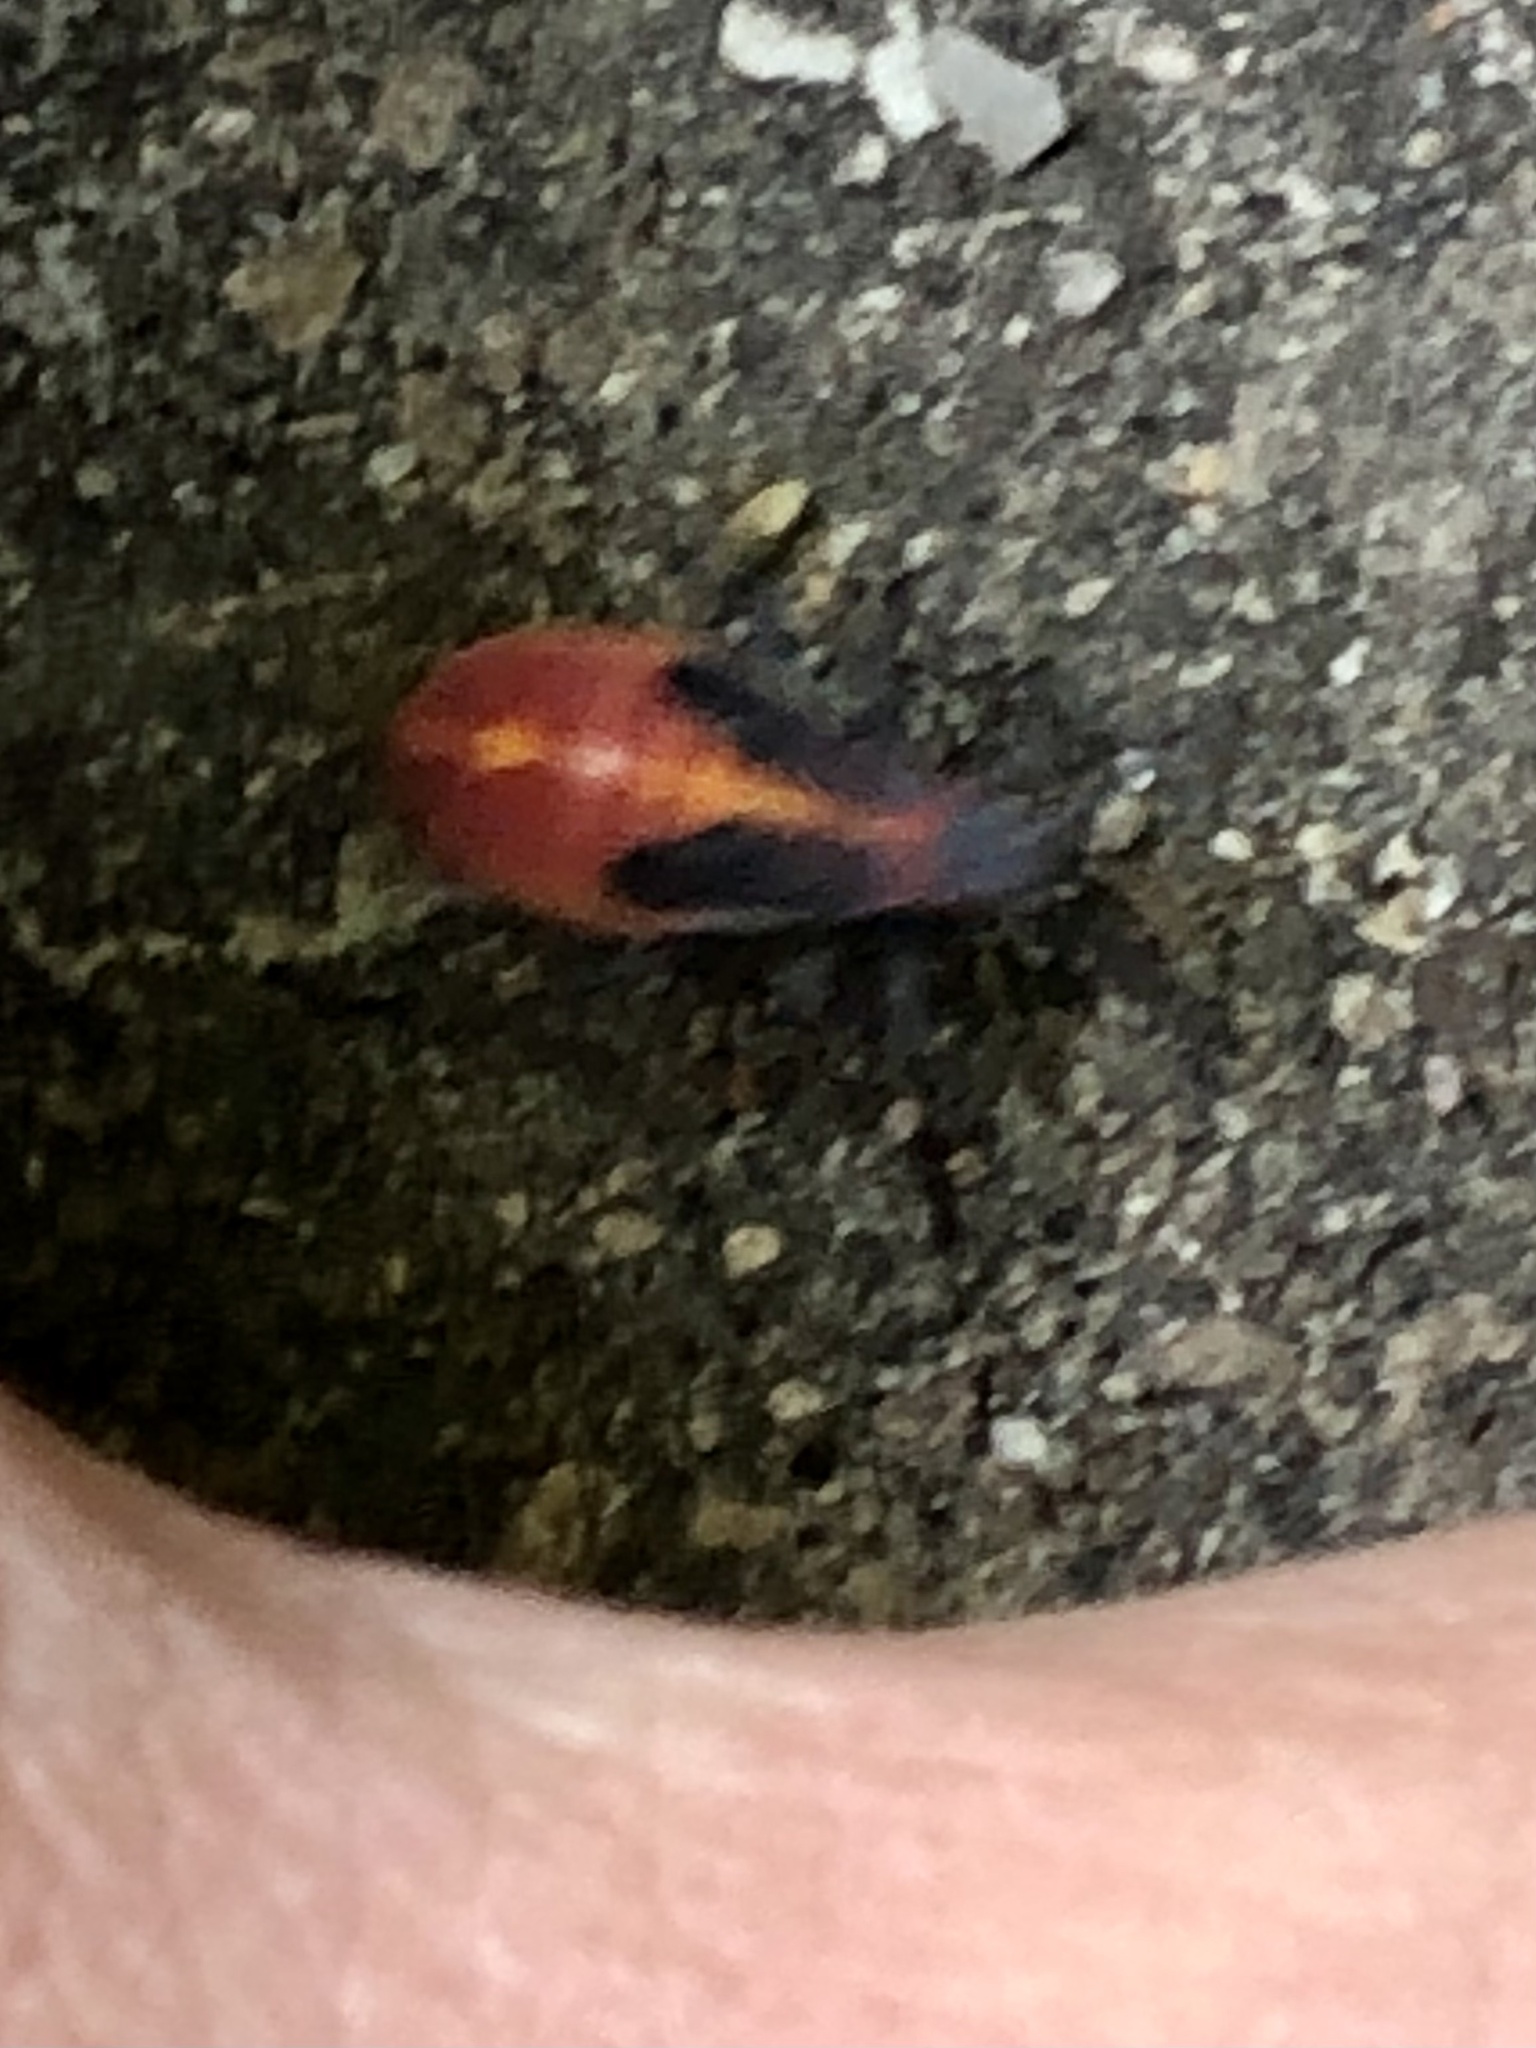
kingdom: Animalia
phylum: Arthropoda
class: Insecta
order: Hemiptera
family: Rhopalidae
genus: Boisea
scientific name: Boisea trivittata
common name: Boxelder bug
